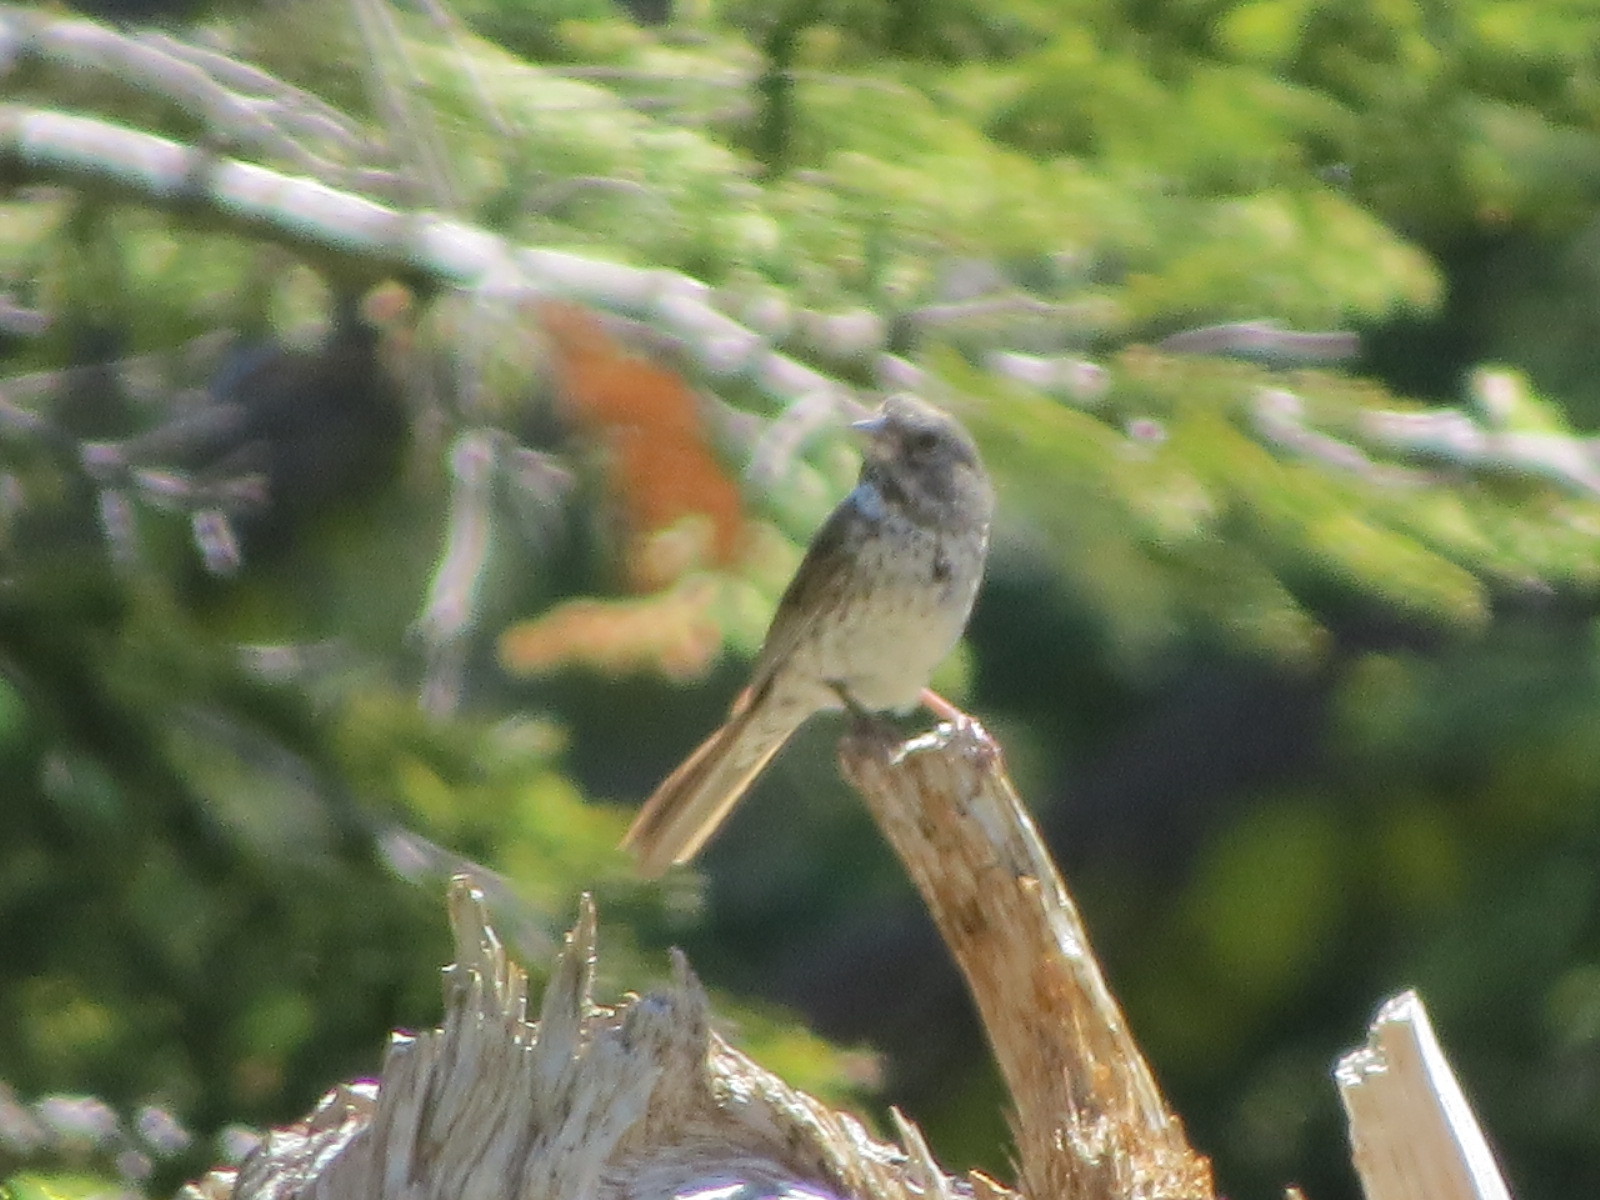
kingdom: Animalia
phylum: Chordata
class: Aves
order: Passeriformes
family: Passerellidae
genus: Passerella
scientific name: Passerella megarhyncha
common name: Thick-billed fox sparrow
